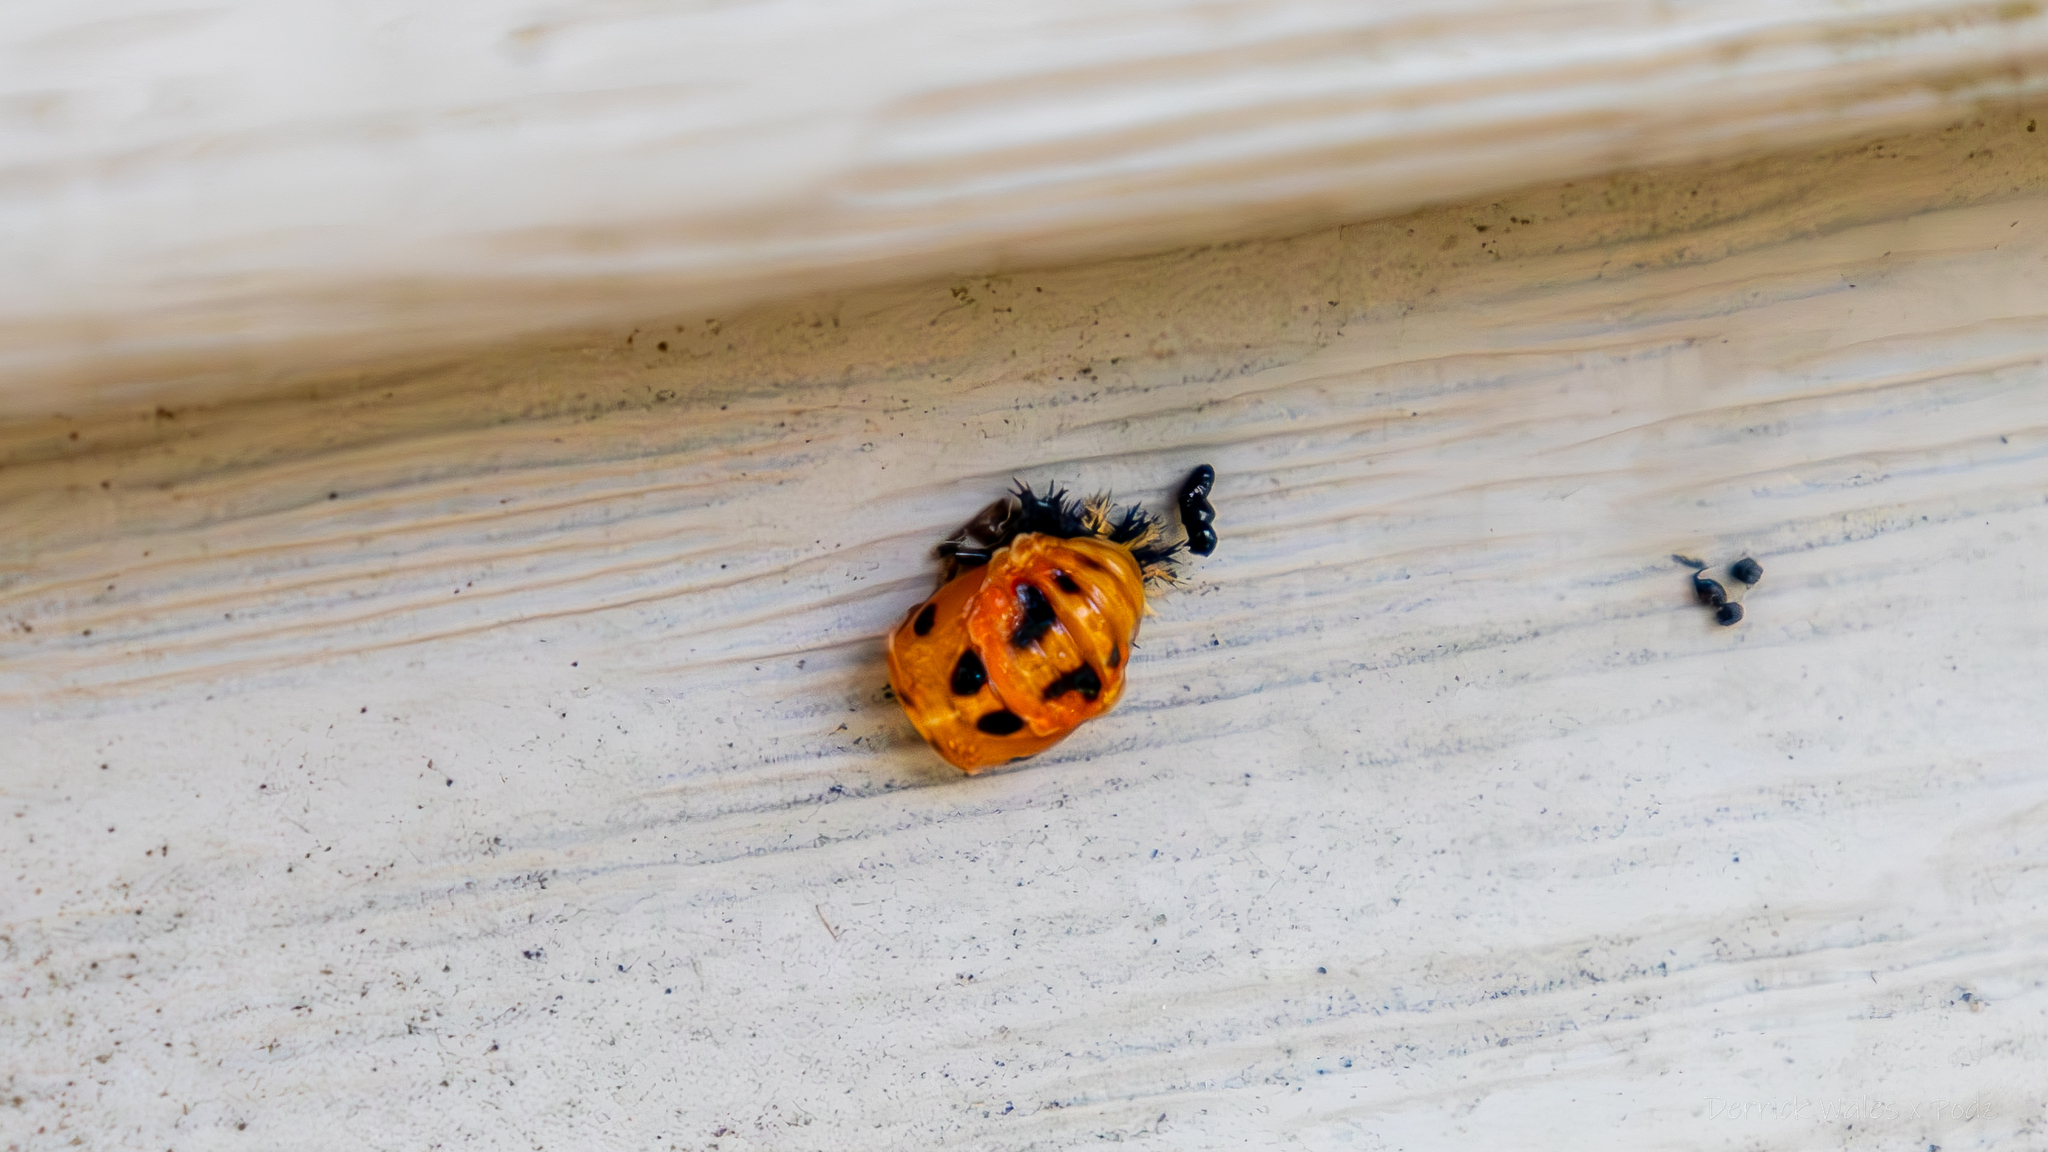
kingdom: Animalia
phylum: Arthropoda
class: Insecta
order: Coleoptera
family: Coccinellidae
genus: Harmonia
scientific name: Harmonia axyridis
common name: Harlequin ladybird
